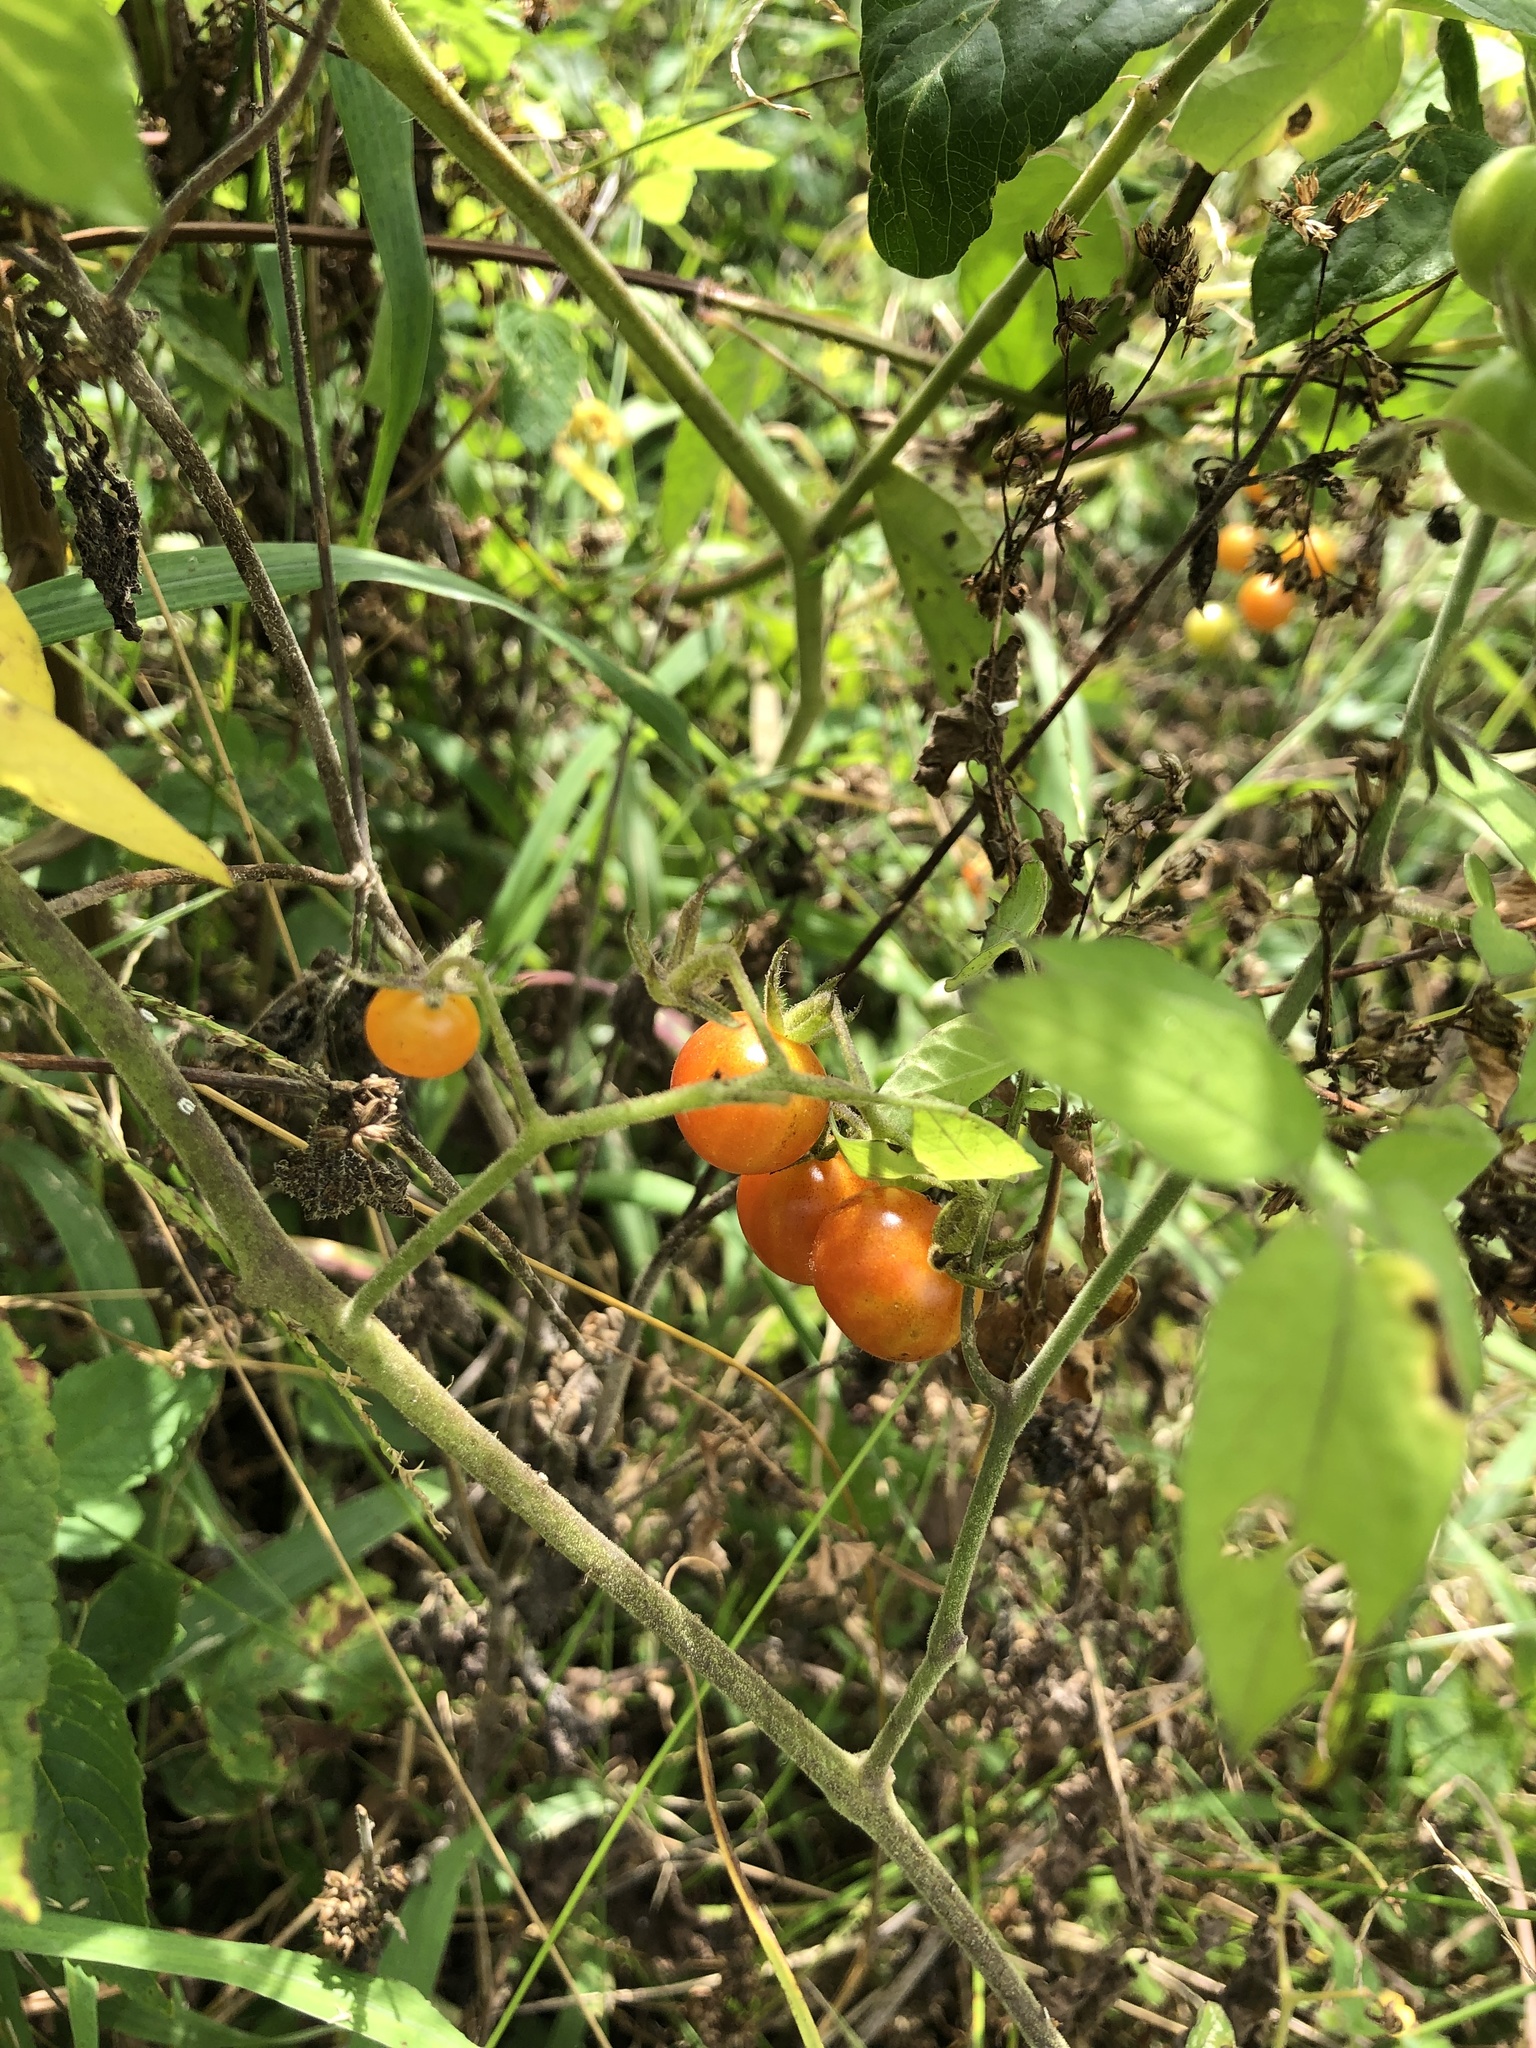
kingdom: Plantae
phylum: Tracheophyta
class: Magnoliopsida
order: Solanales
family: Solanaceae
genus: Solanum
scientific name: Solanum pimpinellifolium
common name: Currant-tomato
